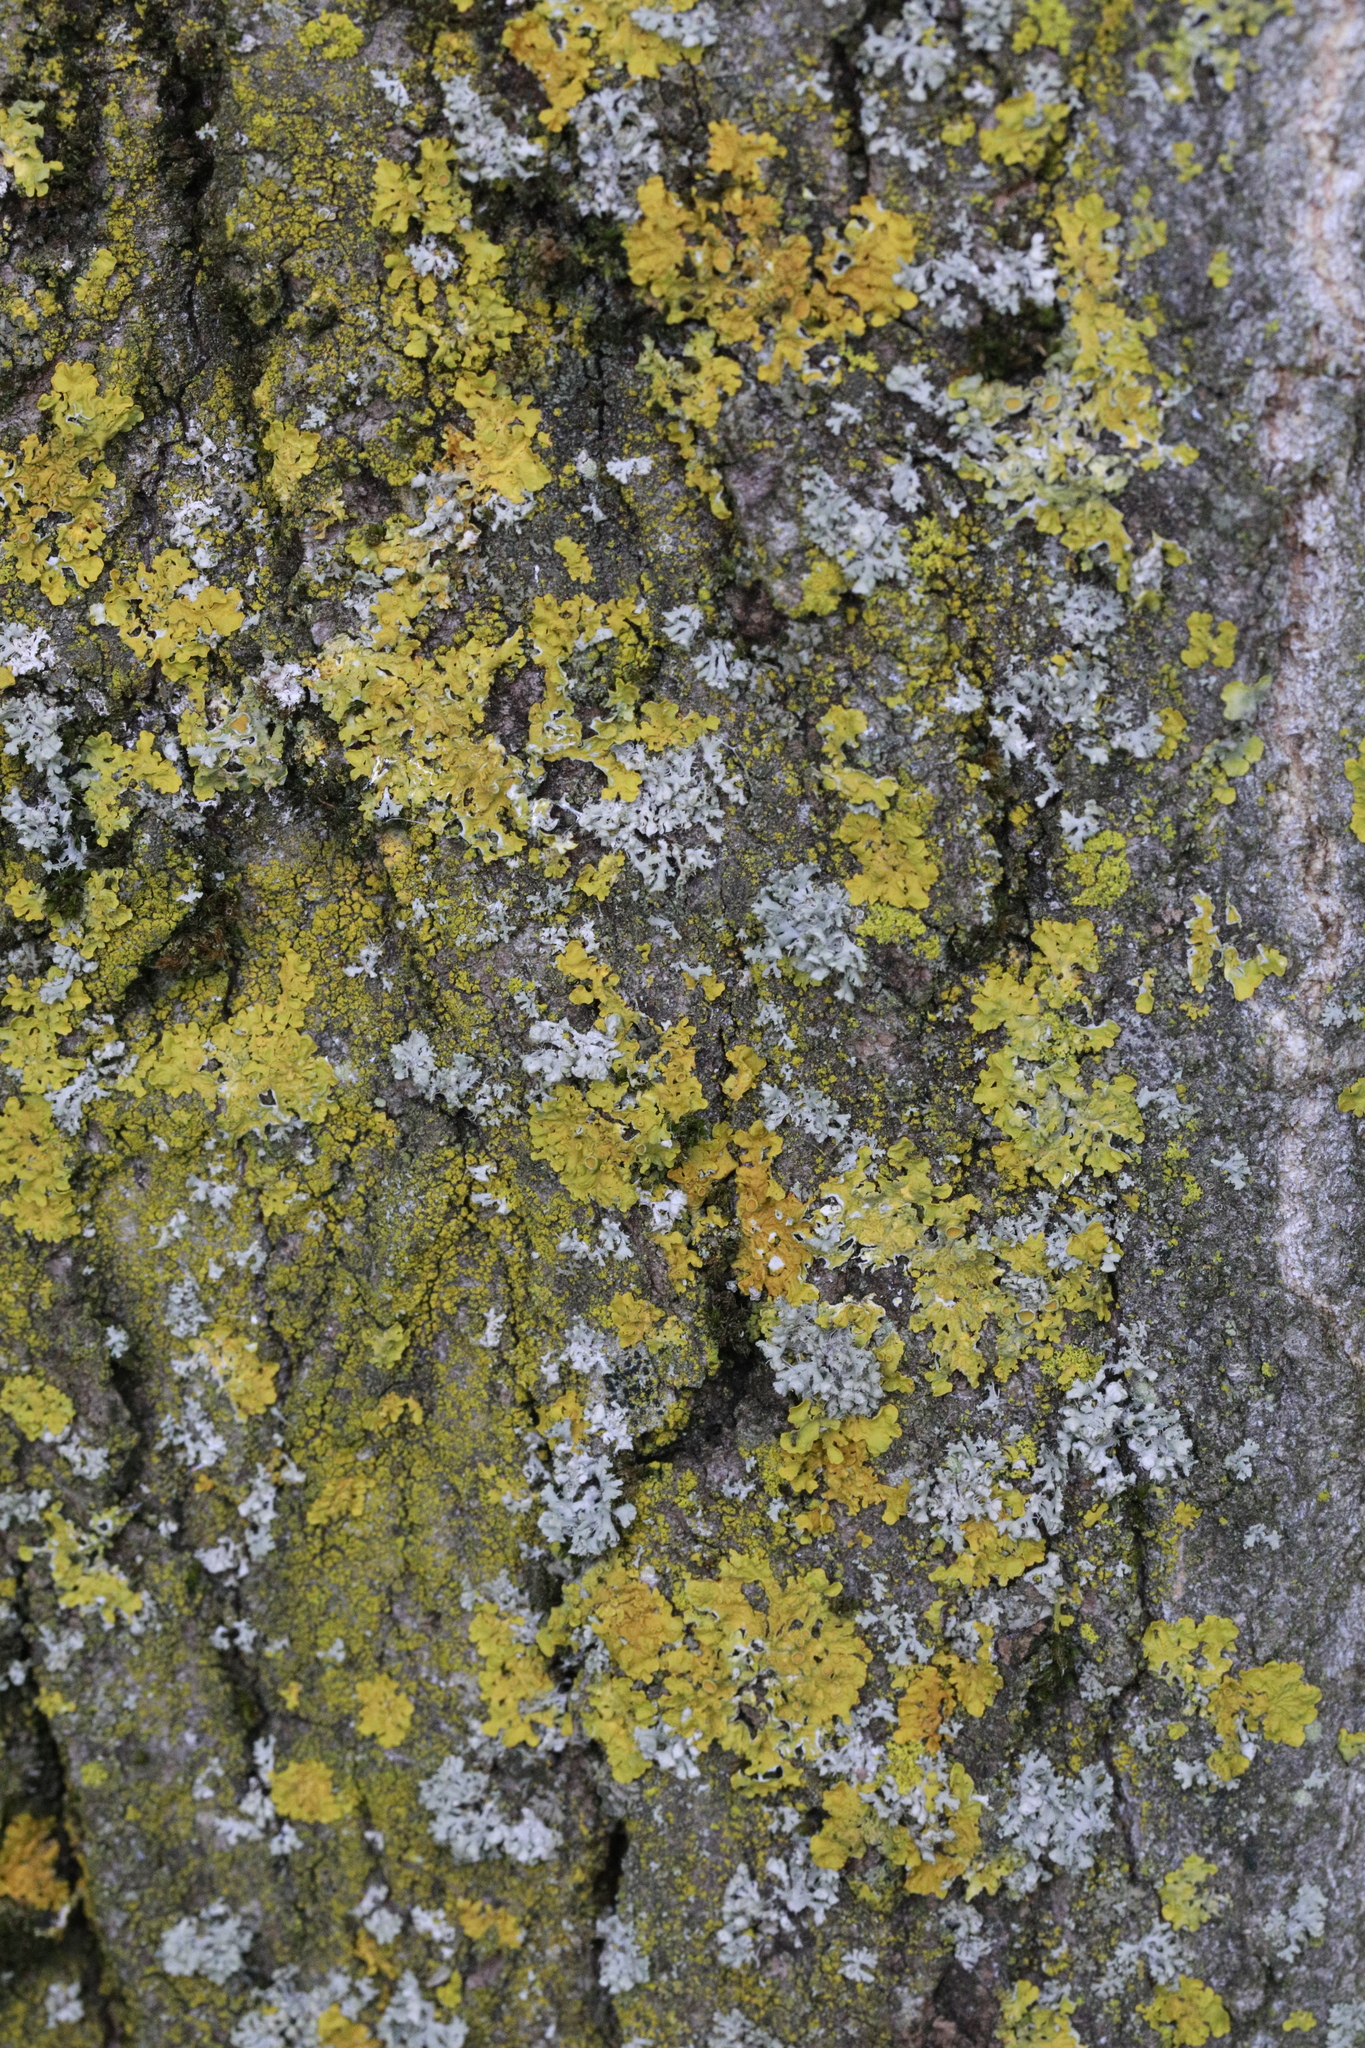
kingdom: Fungi
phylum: Ascomycota
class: Lecanoromycetes
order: Teloschistales
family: Teloschistaceae
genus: Xanthoria
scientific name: Xanthoria parietina
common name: Common orange lichen
